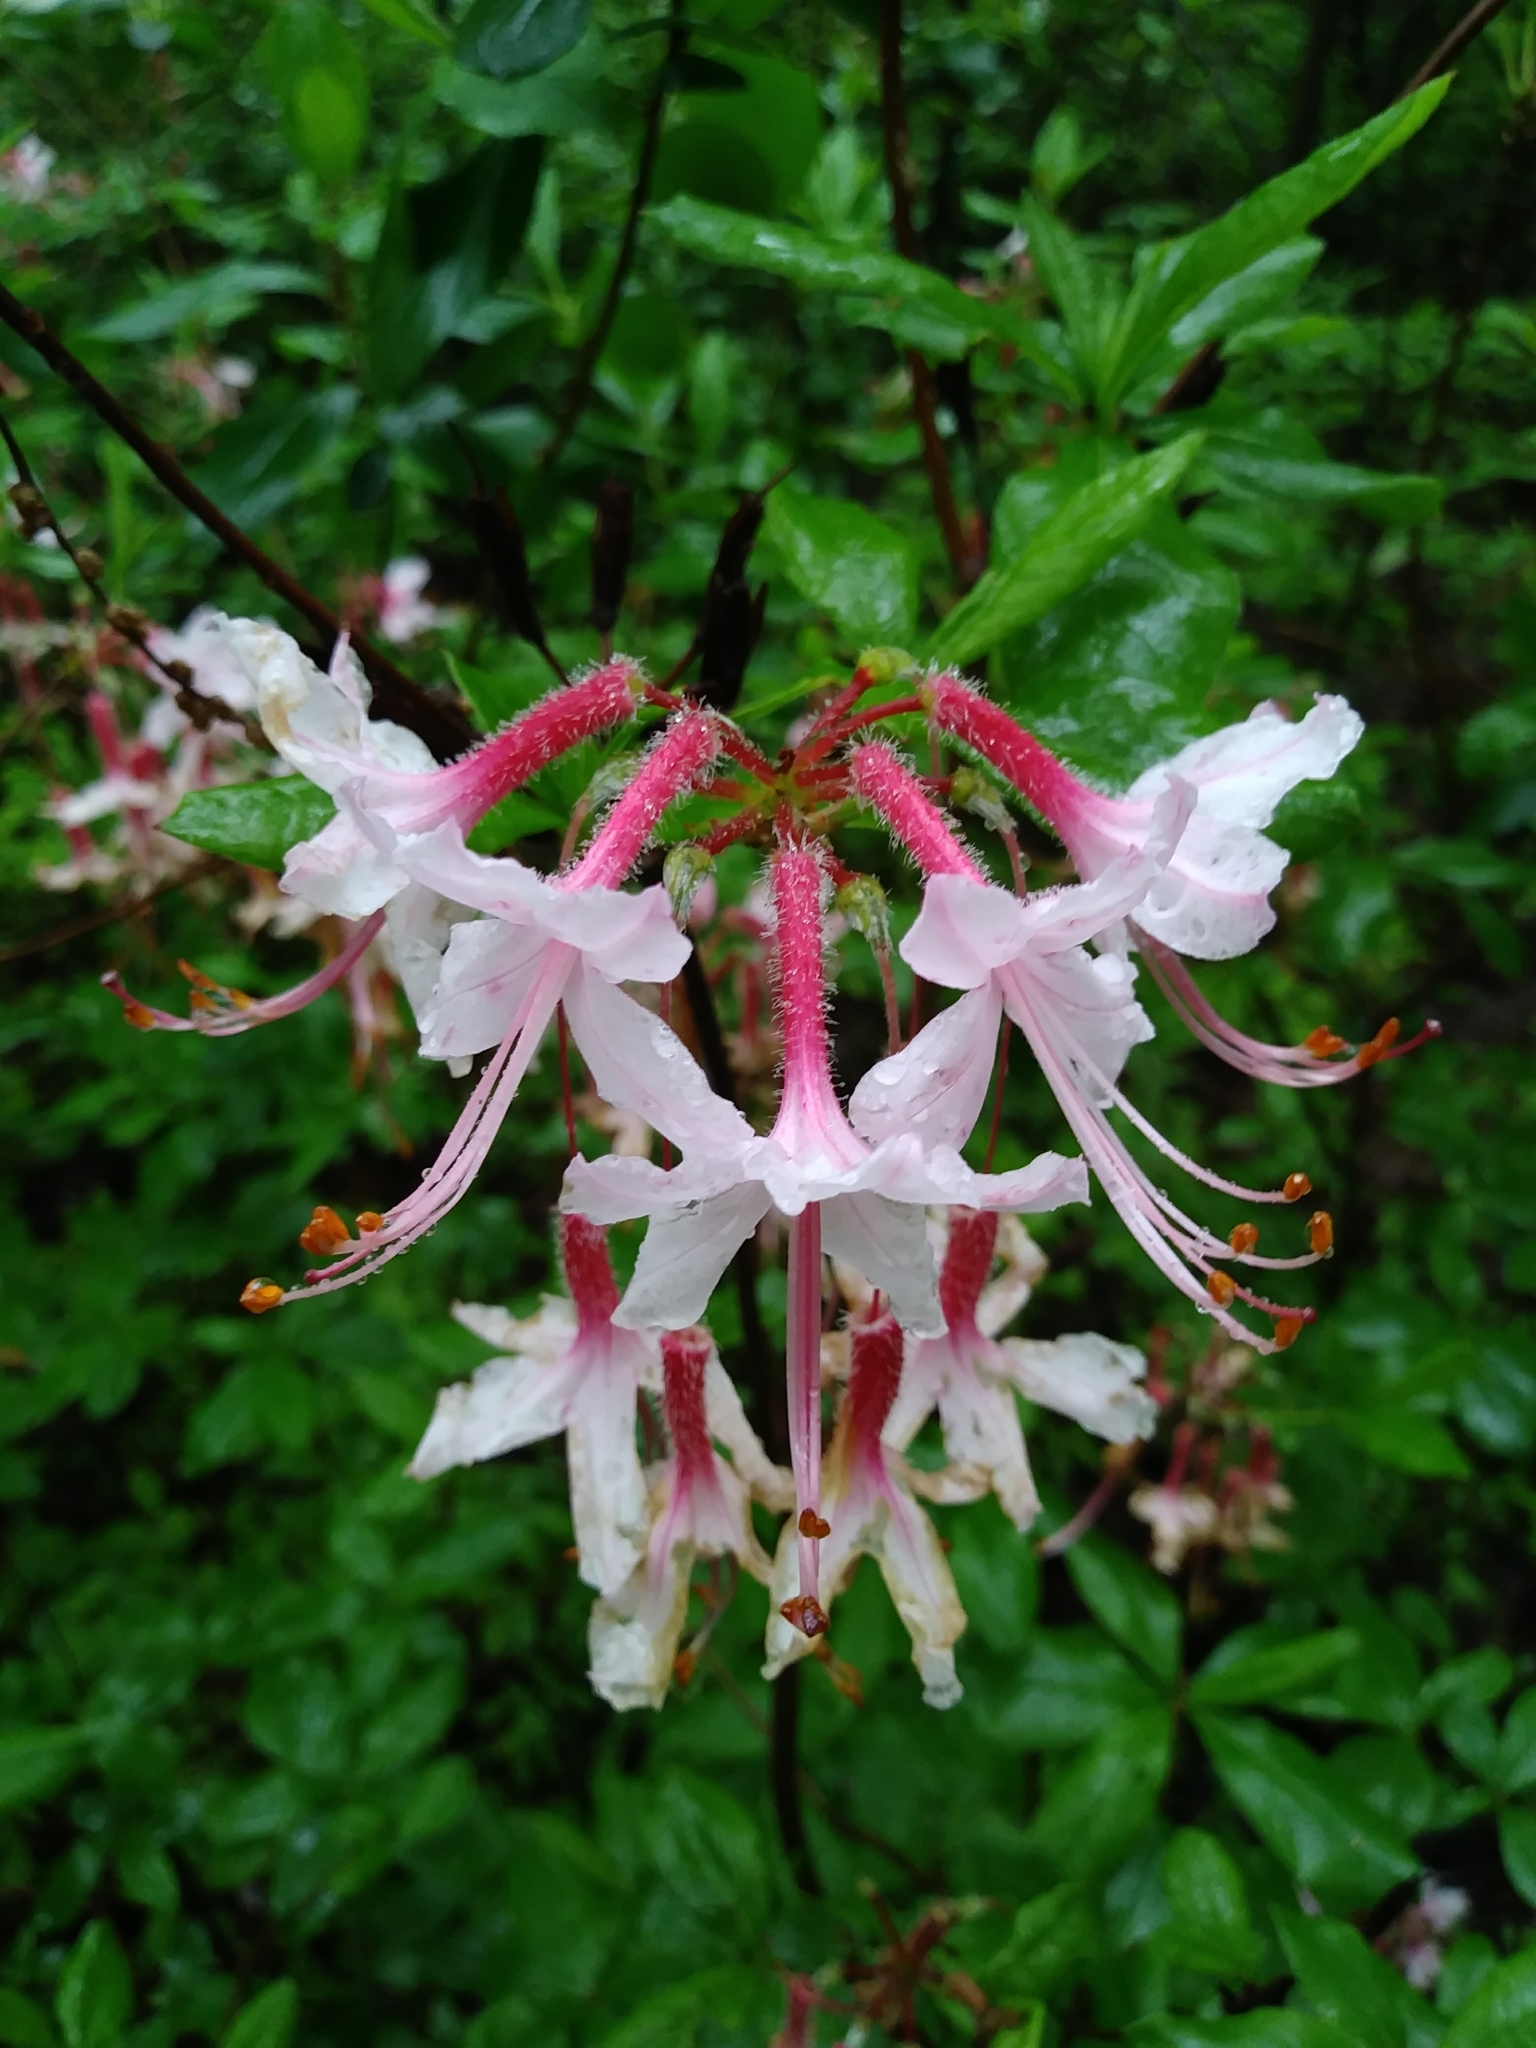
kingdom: Plantae
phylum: Tracheophyta
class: Magnoliopsida
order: Ericales
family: Ericaceae
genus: Rhododendron
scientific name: Rhododendron periclymenoides
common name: Election-pink
